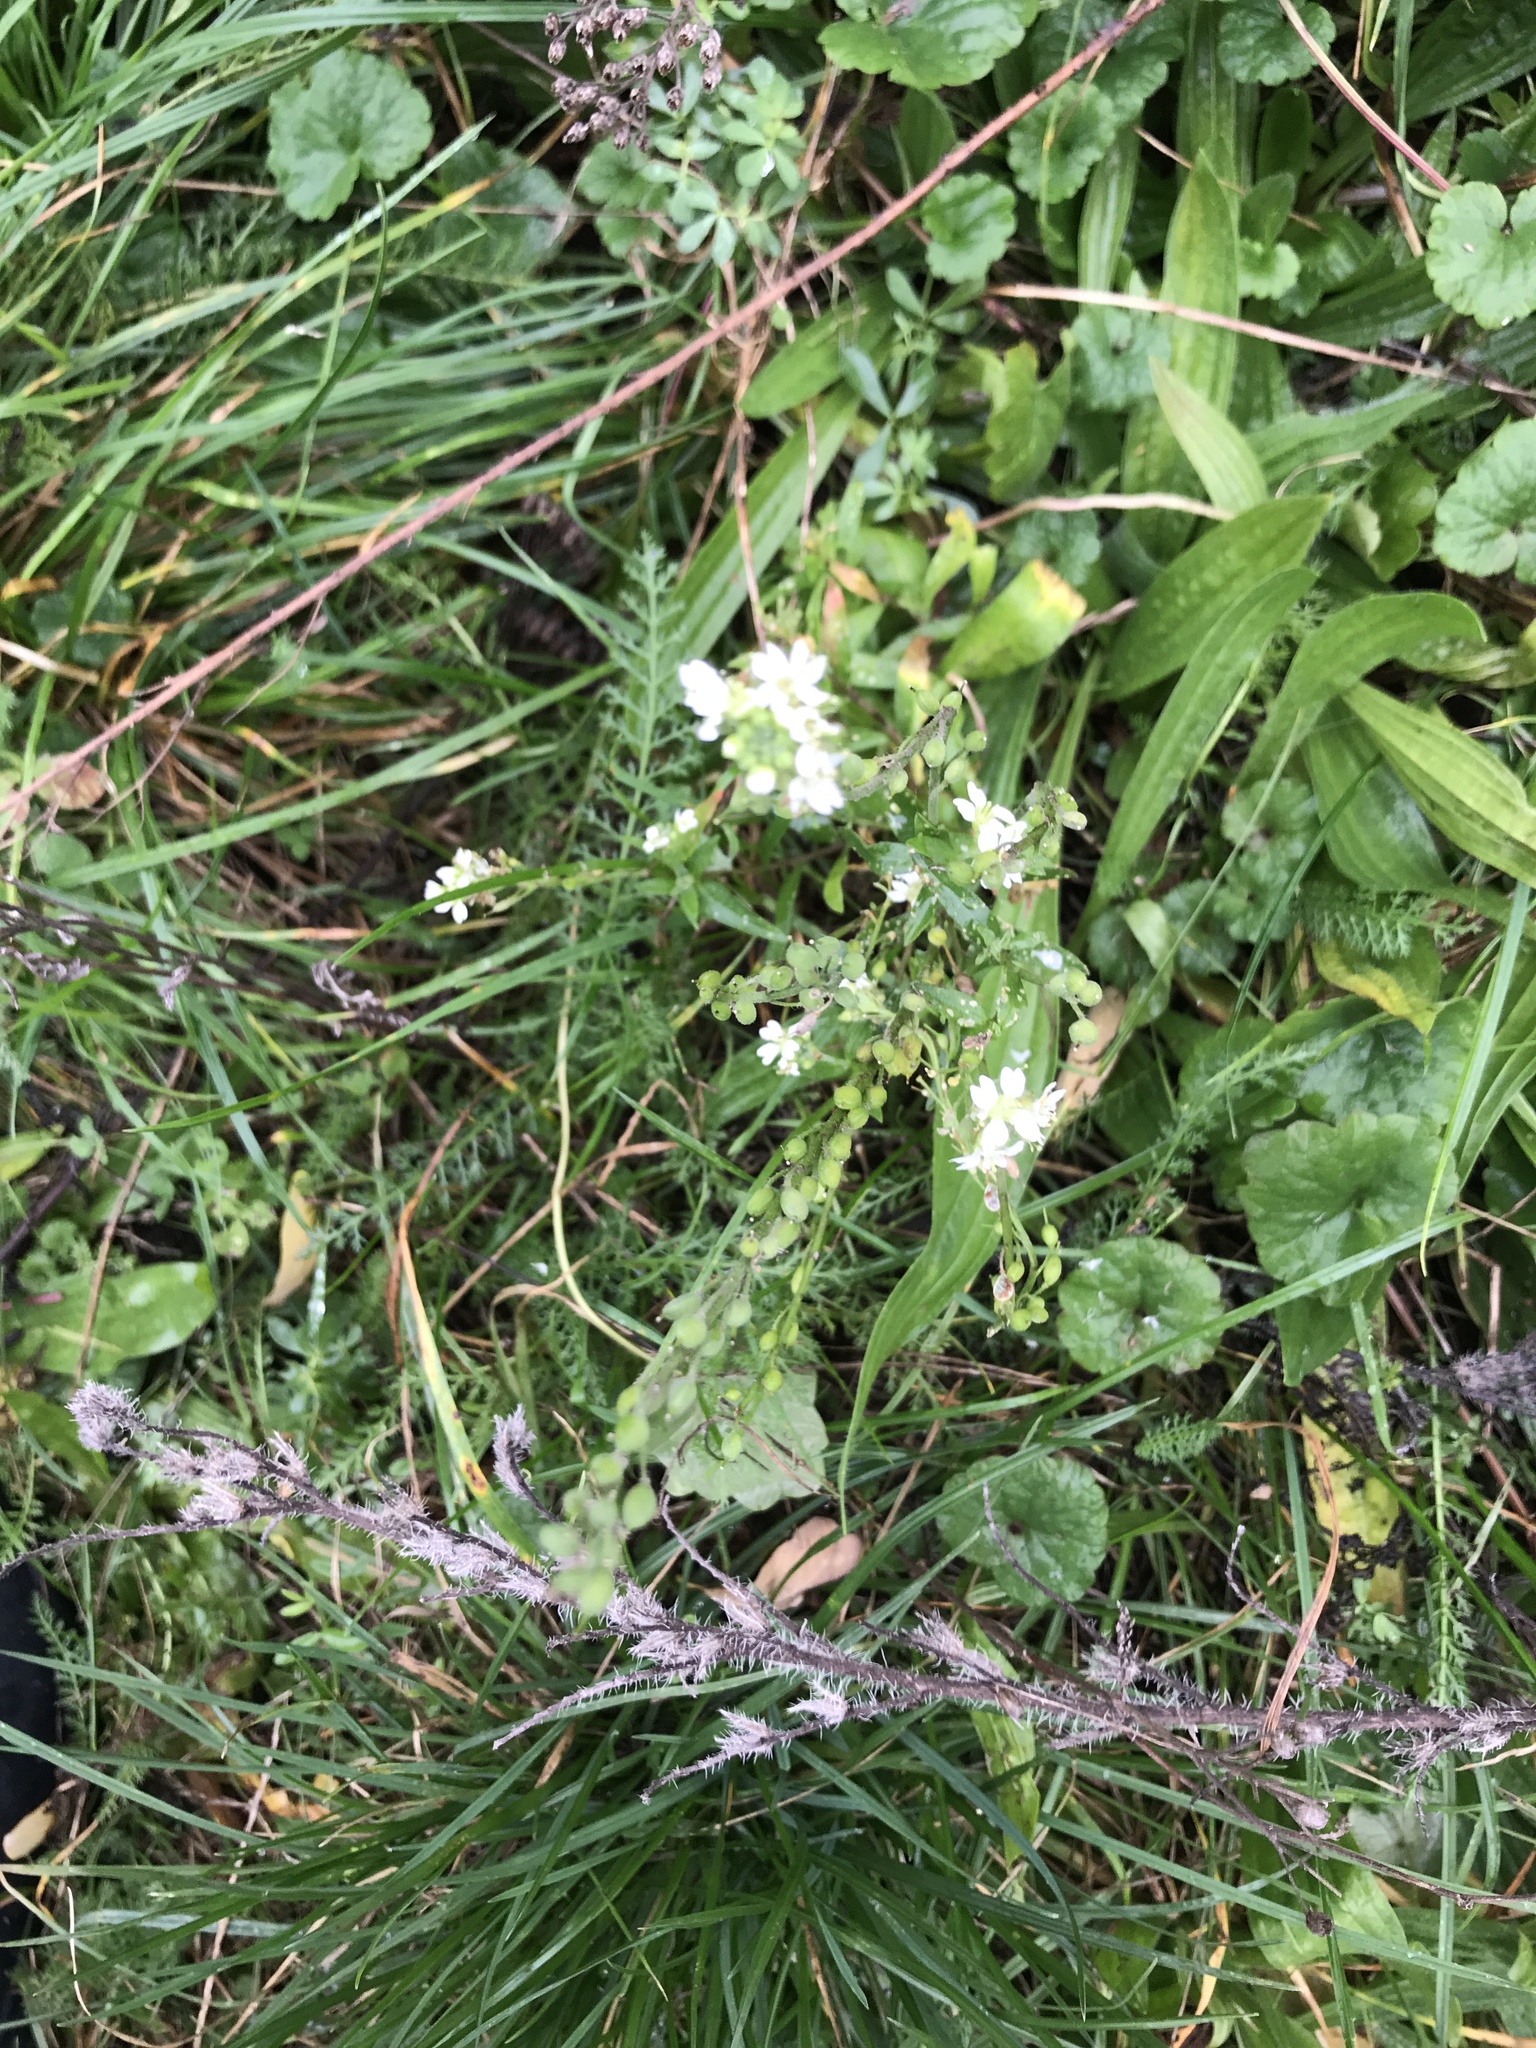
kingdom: Plantae
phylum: Tracheophyta
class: Magnoliopsida
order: Brassicales
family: Brassicaceae
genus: Berteroa
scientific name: Berteroa incana
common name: Hoary alison
